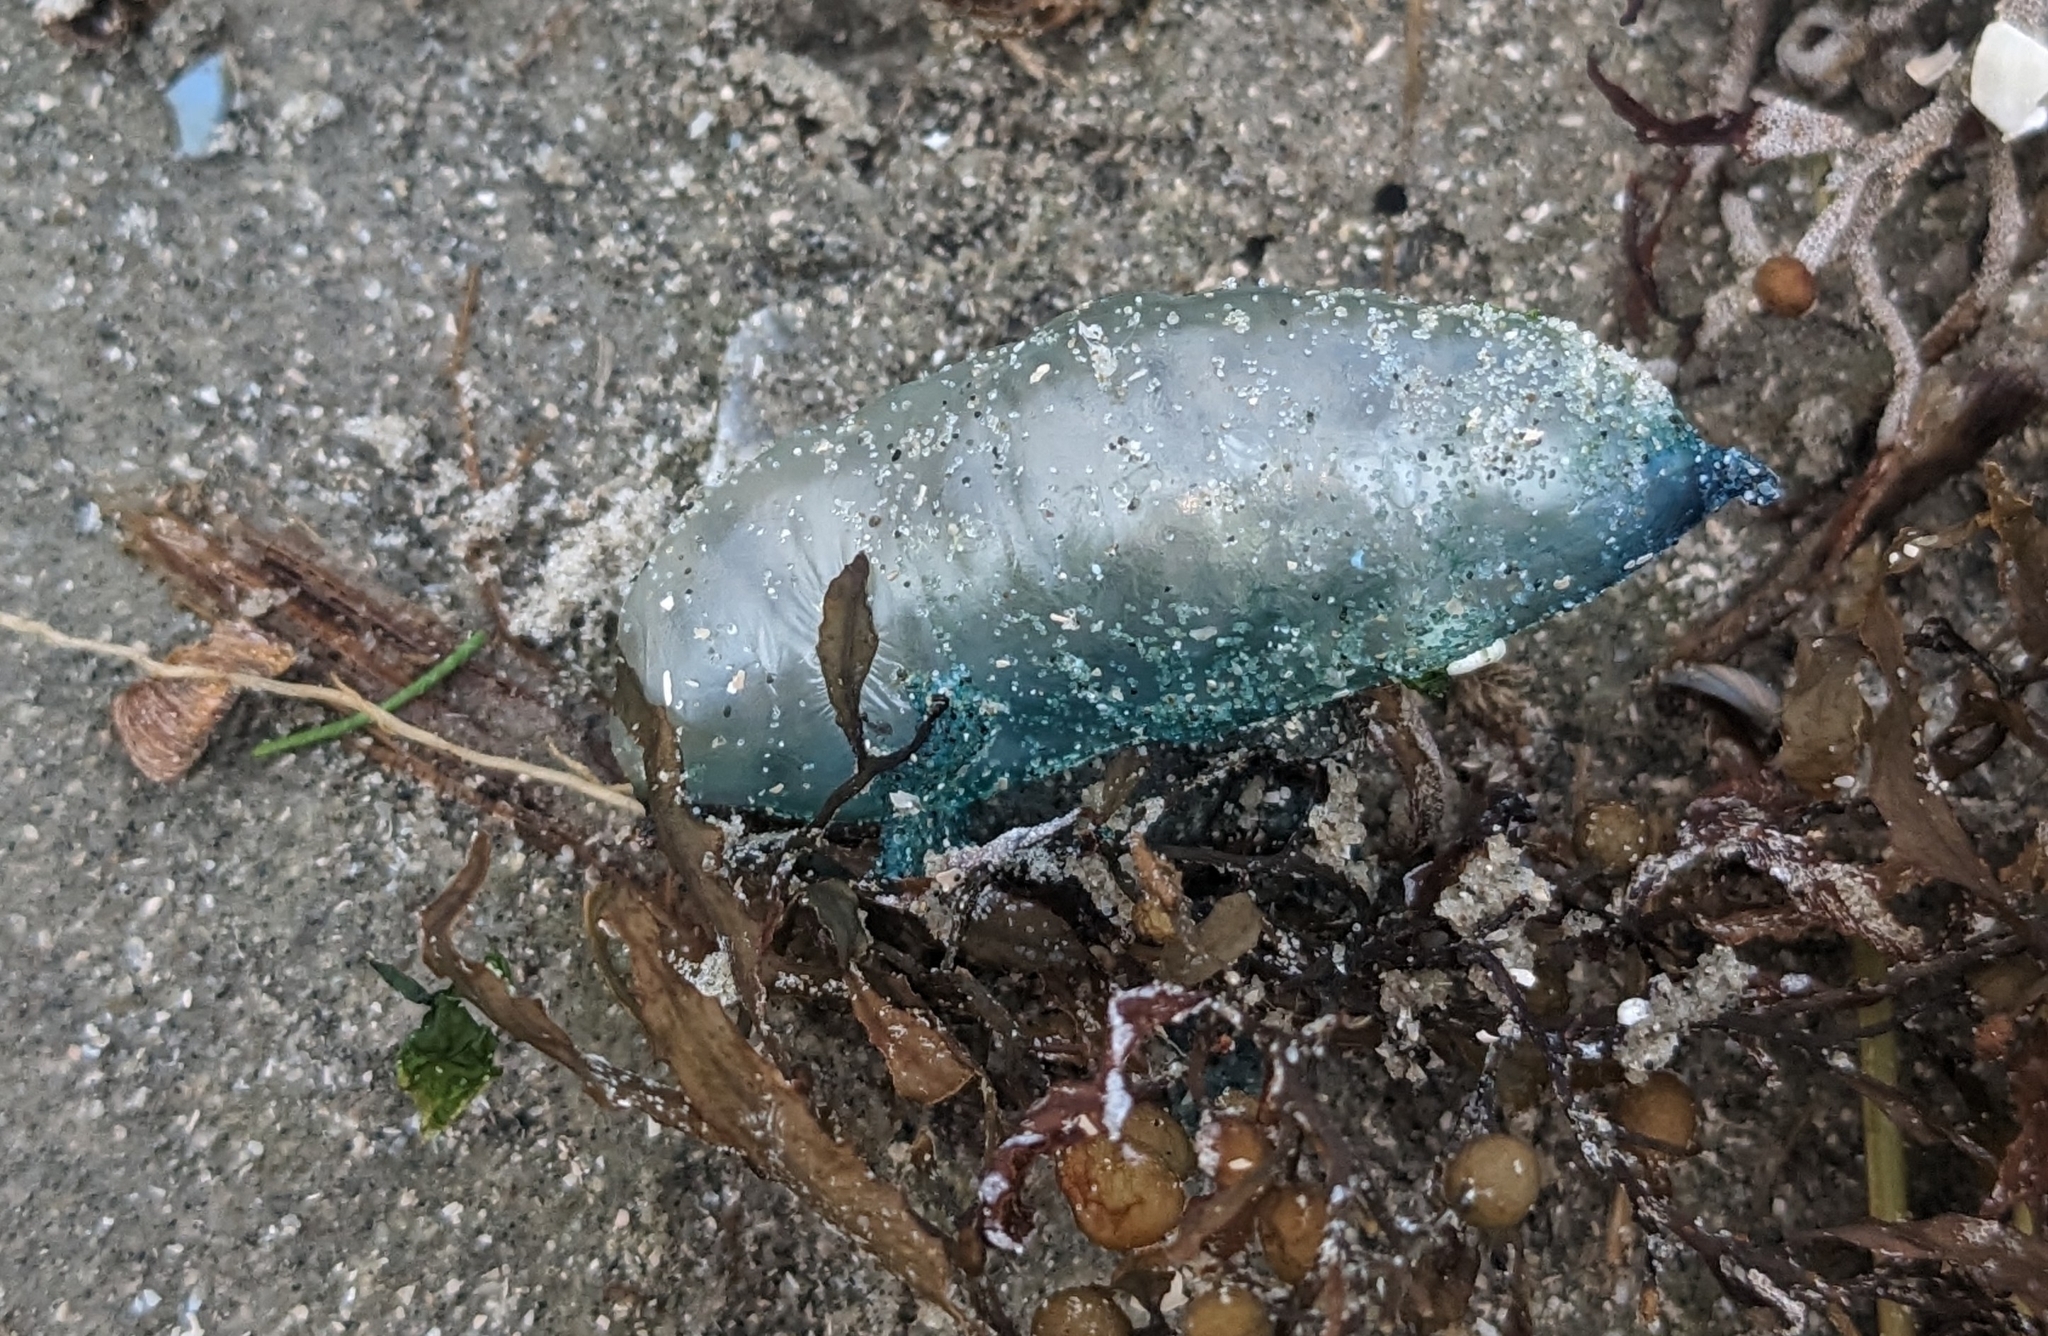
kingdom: Animalia
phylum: Cnidaria
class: Hydrozoa
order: Siphonophorae
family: Physaliidae
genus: Physalia
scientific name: Physalia physalis
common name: Portuguese man-of-war
